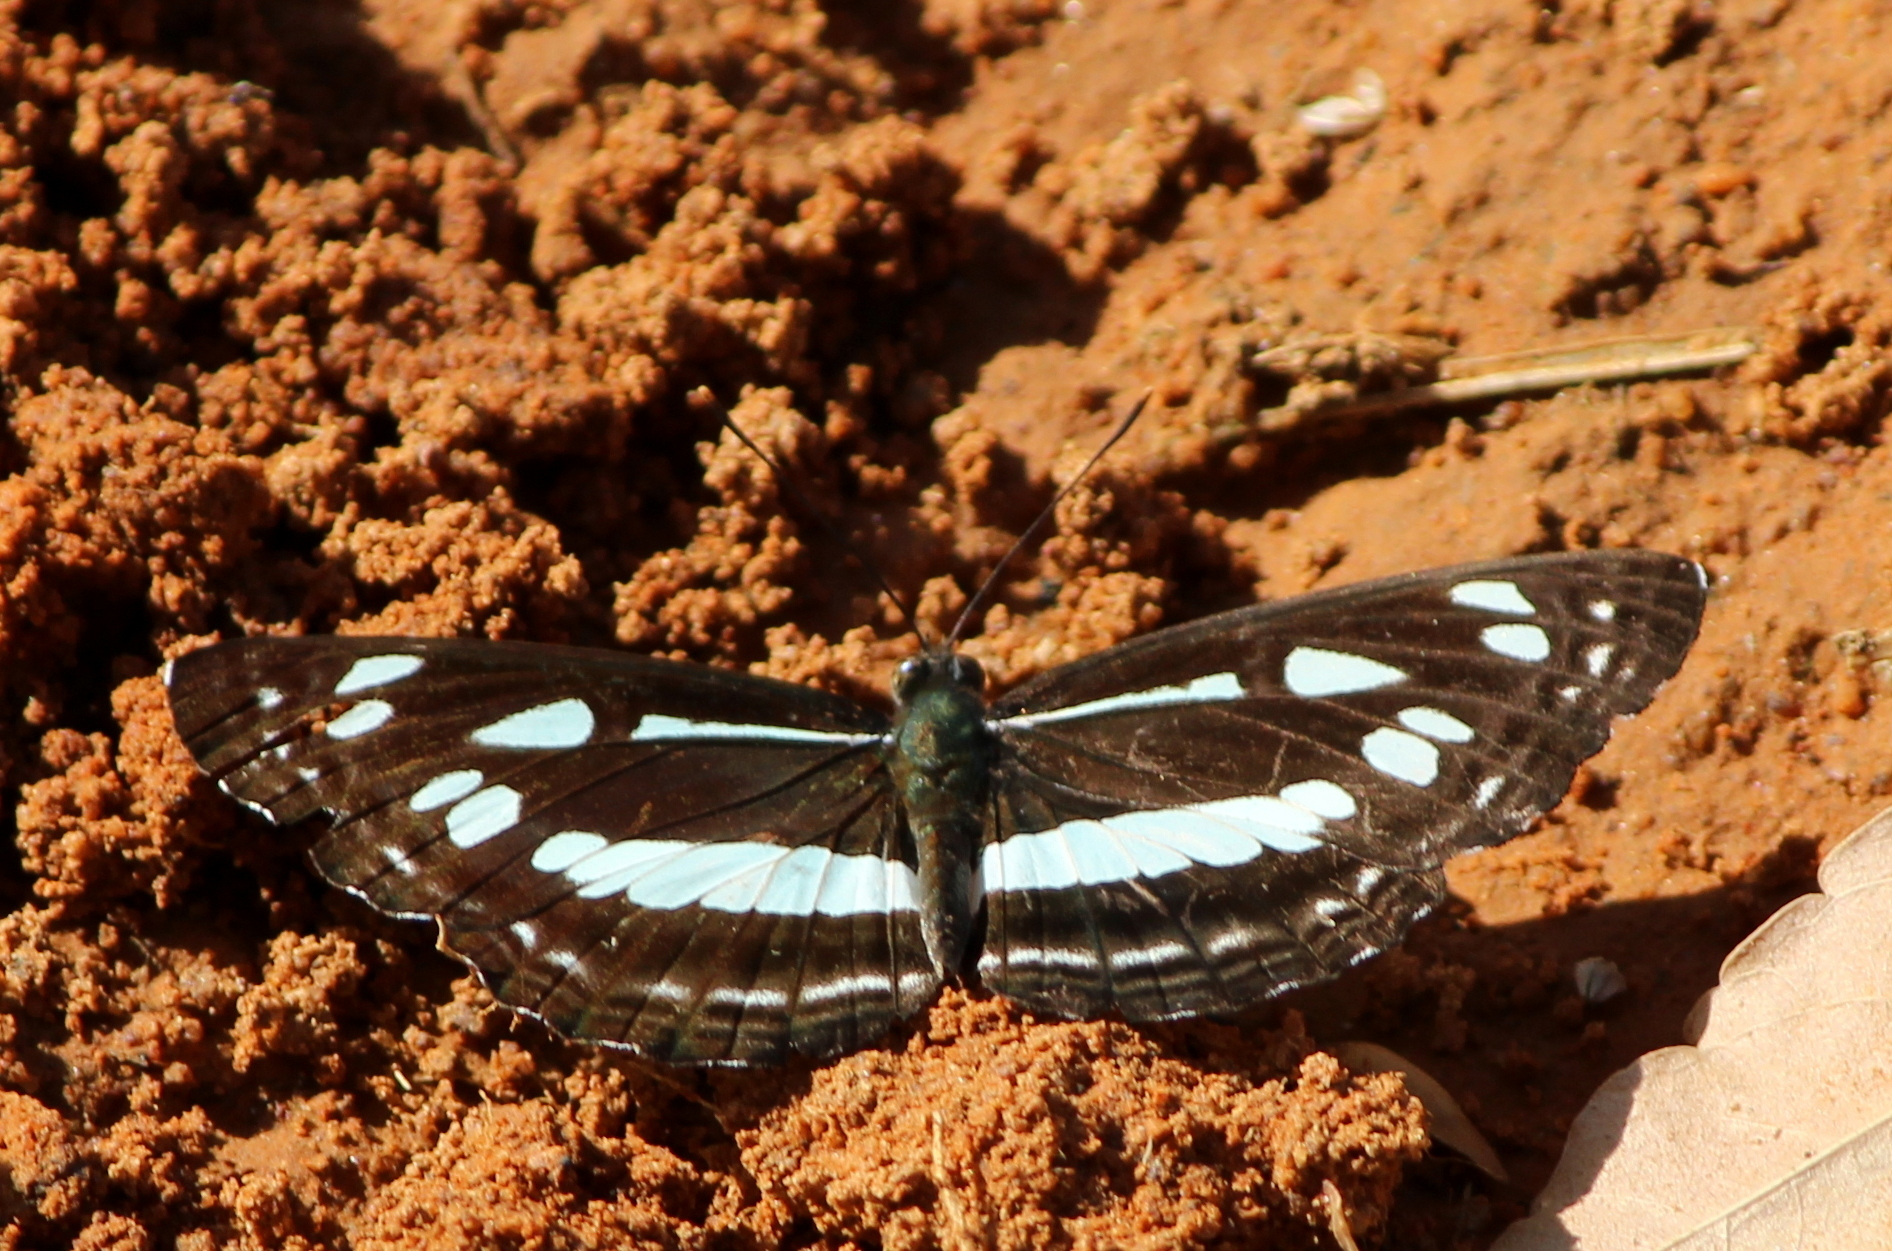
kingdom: Animalia
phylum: Arthropoda
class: Insecta
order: Lepidoptera
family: Nymphalidae
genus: Neptis
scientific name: Neptis jumbah
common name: Chestnut-streaked sailer
